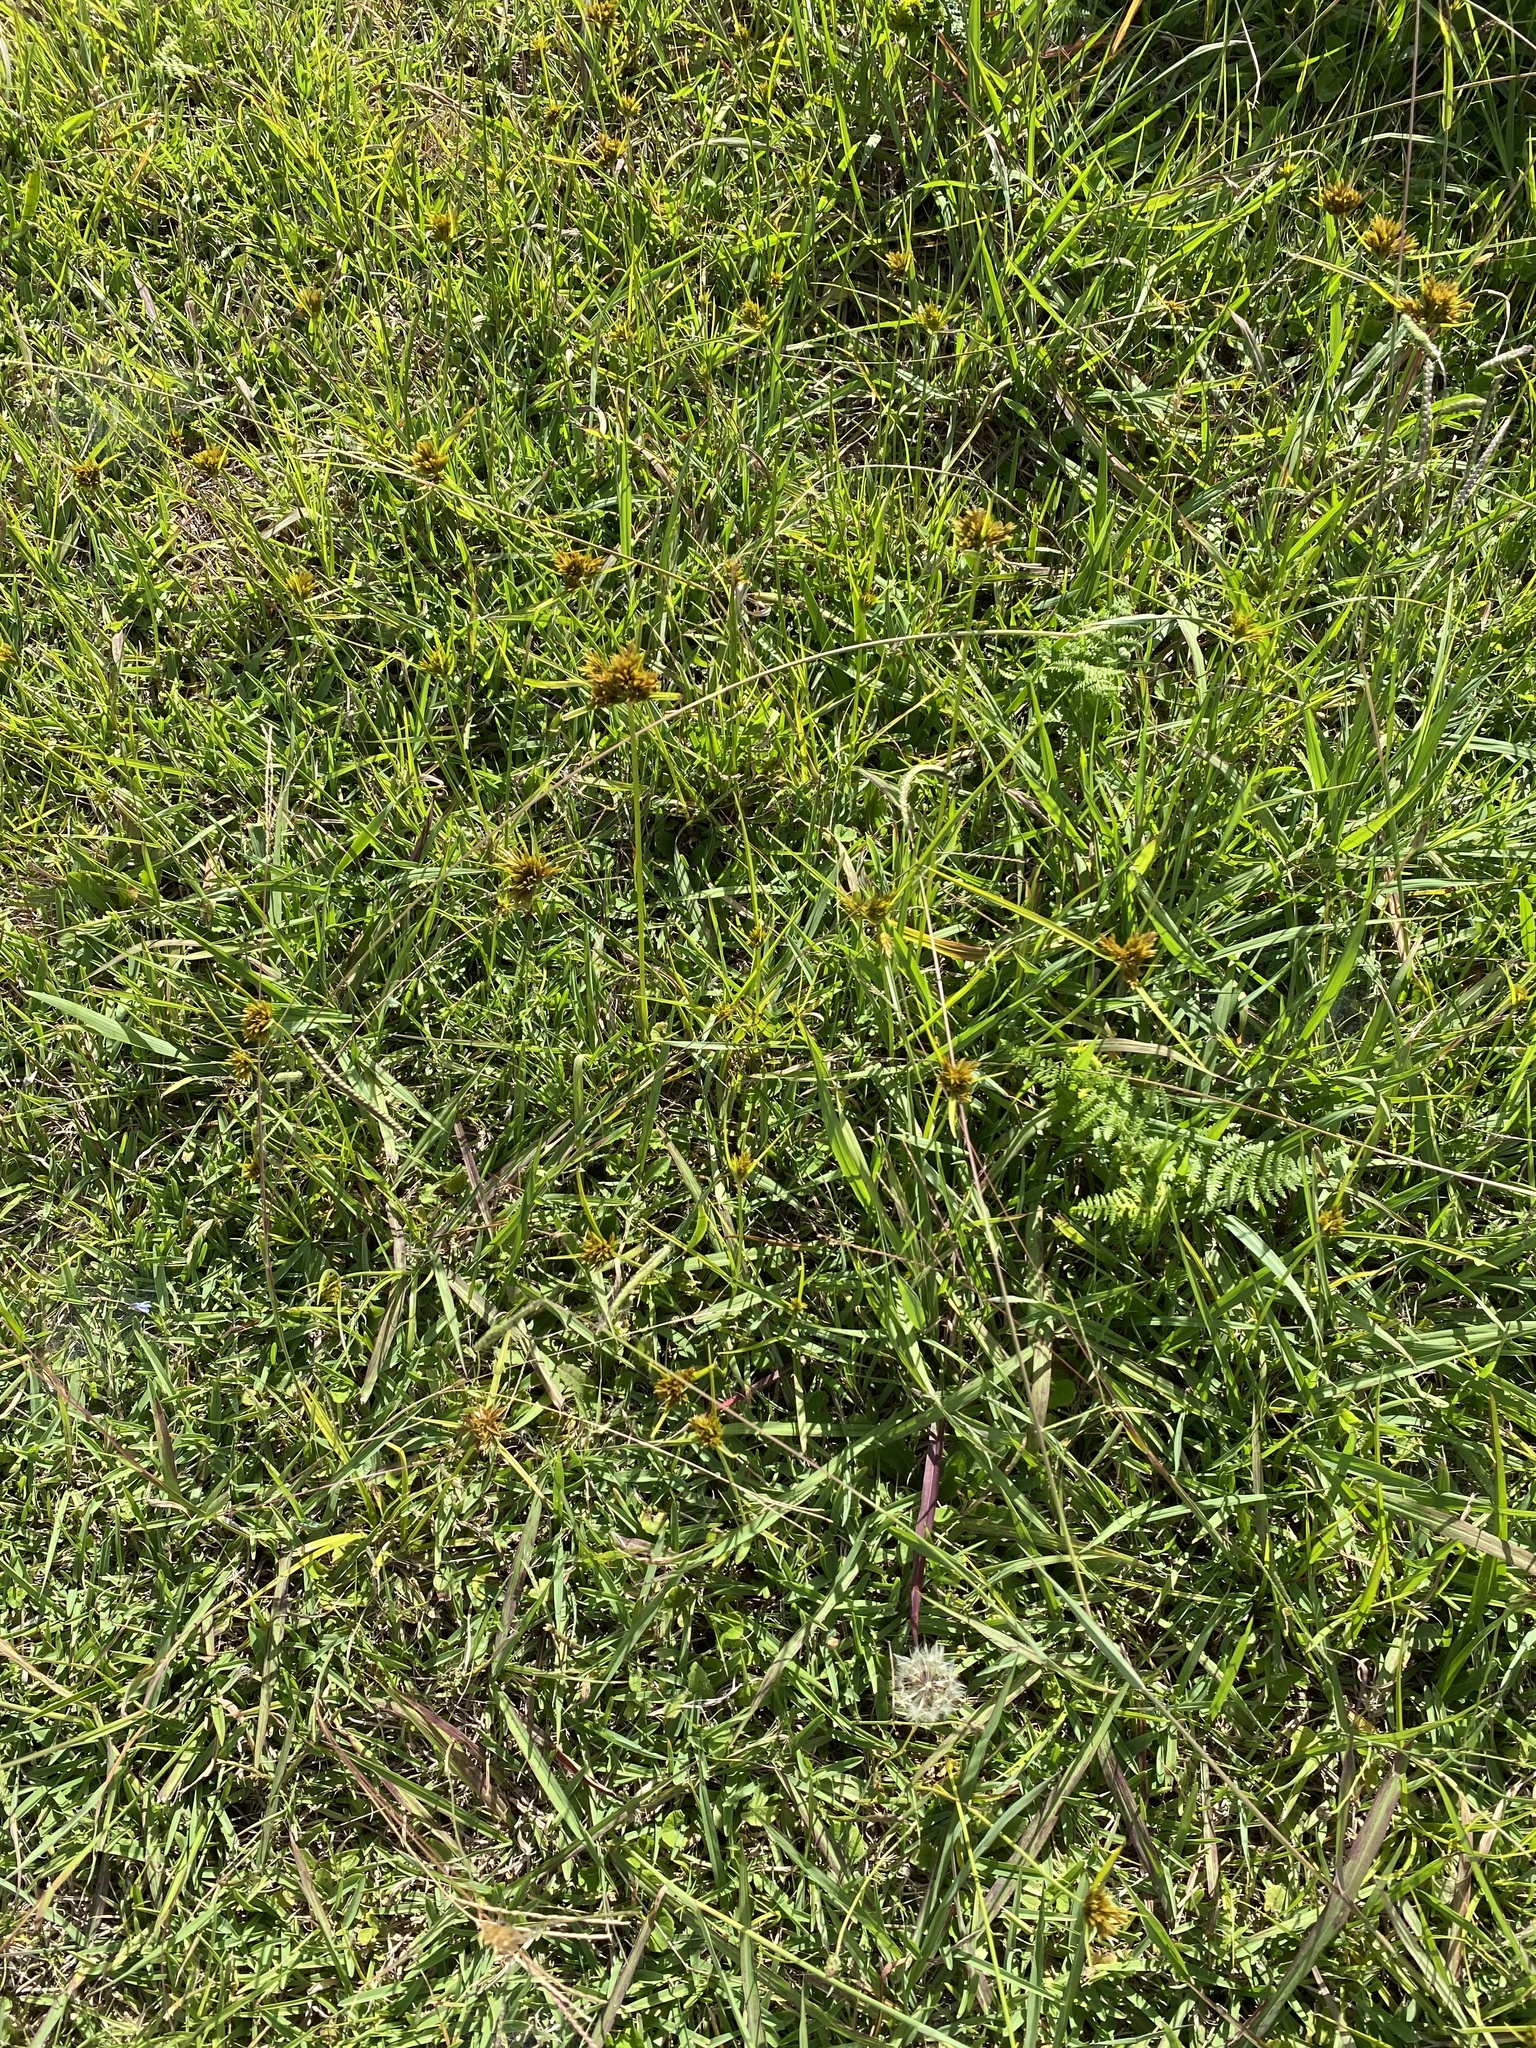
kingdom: Plantae
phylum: Tracheophyta
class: Liliopsida
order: Poales
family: Cyperaceae
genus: Cyperus
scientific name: Cyperus polystachyos
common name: Bunchy flat sedge
